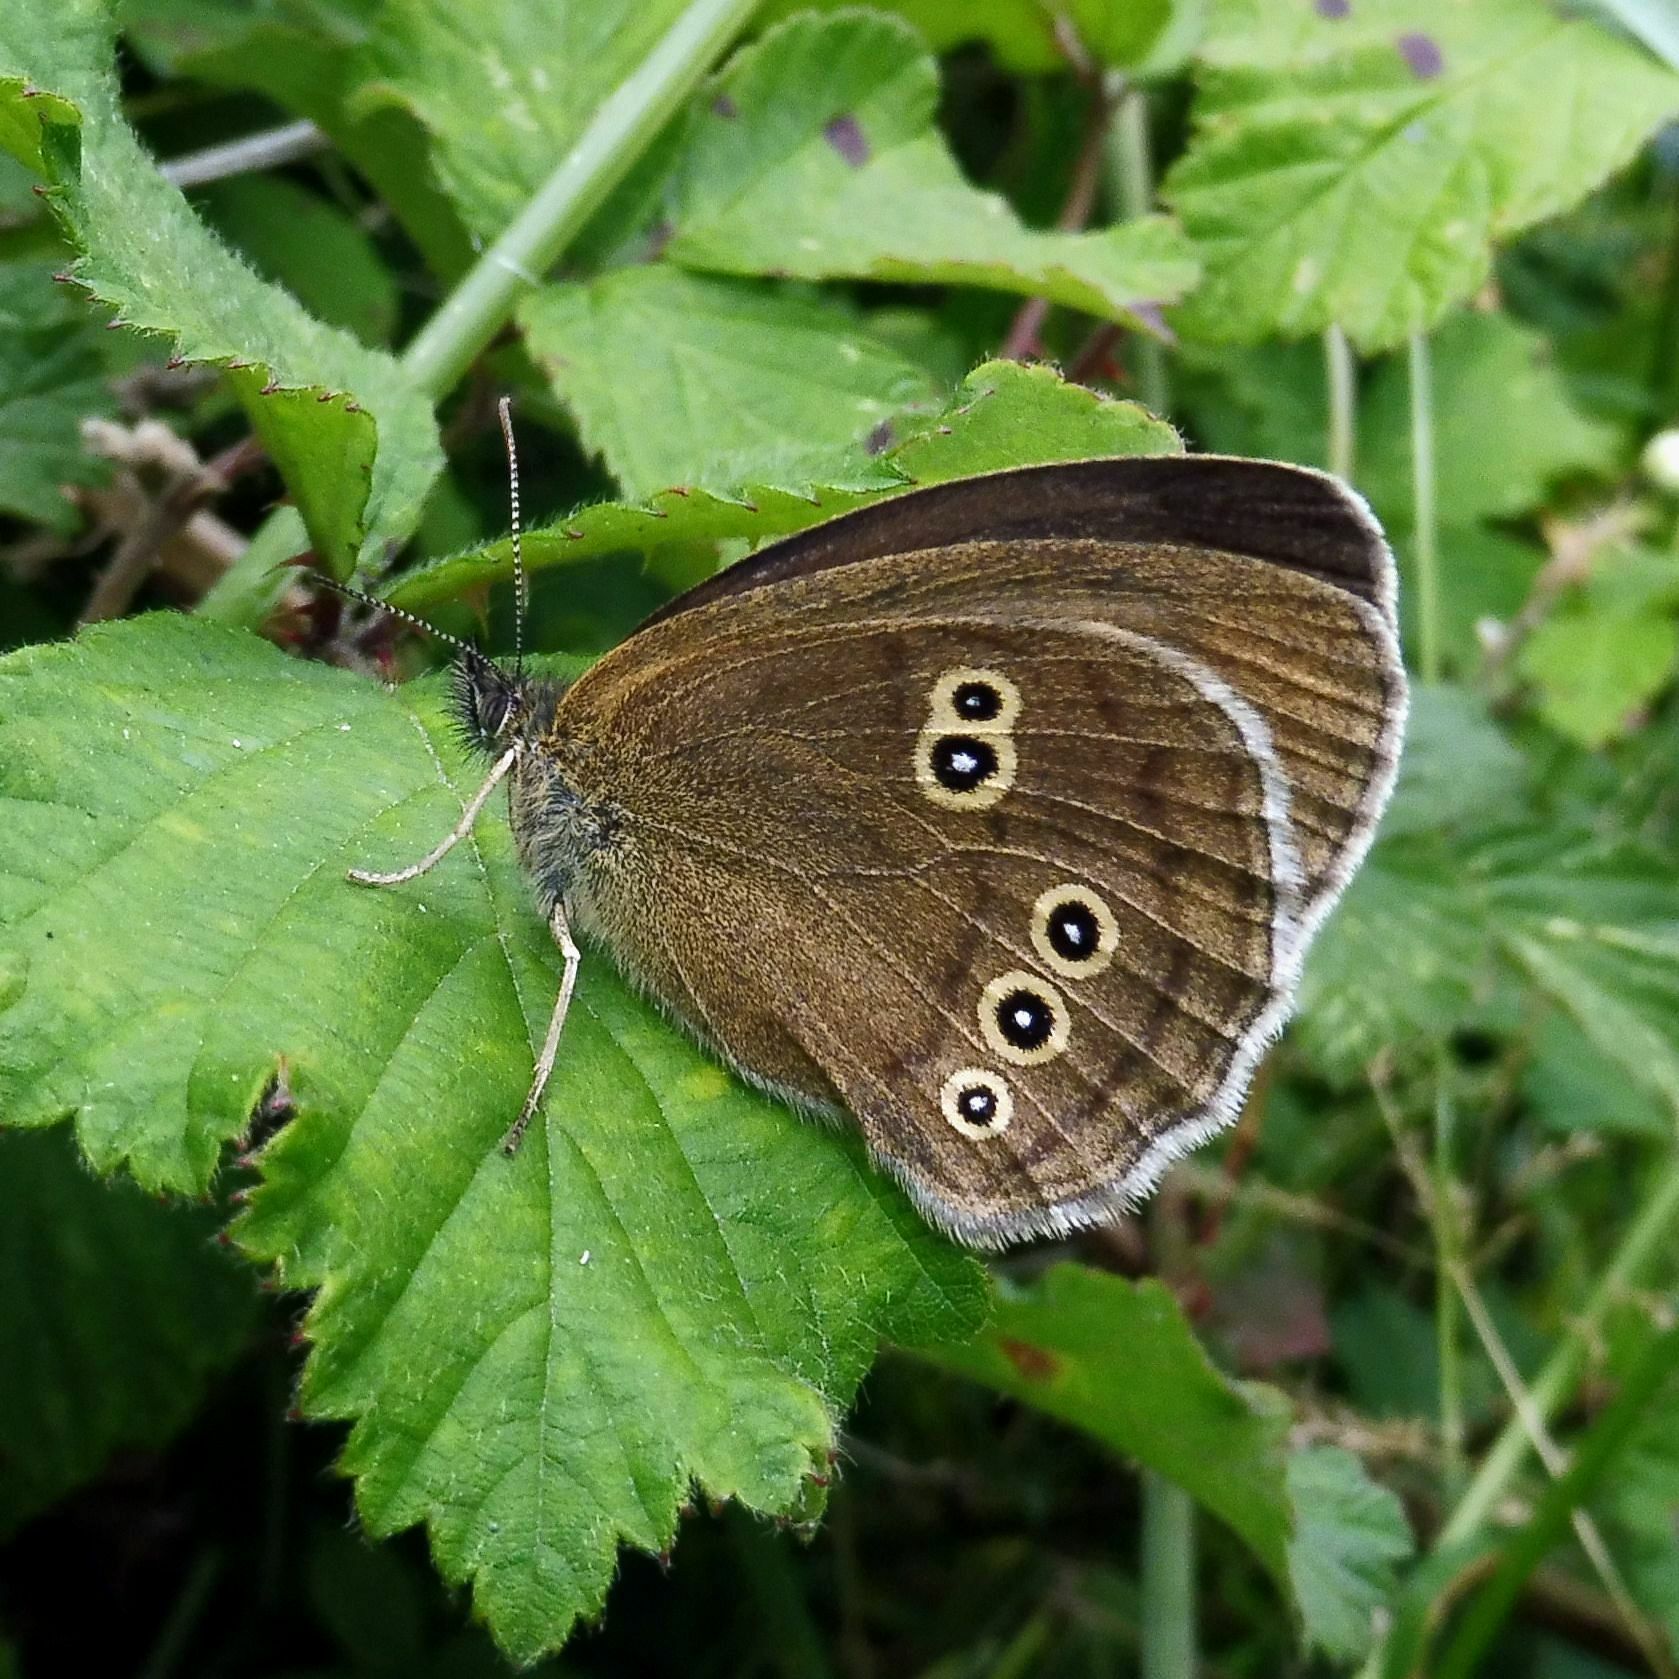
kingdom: Animalia
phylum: Arthropoda
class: Insecta
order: Lepidoptera
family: Nymphalidae
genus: Aphantopus
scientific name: Aphantopus hyperantus
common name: Ringlet
